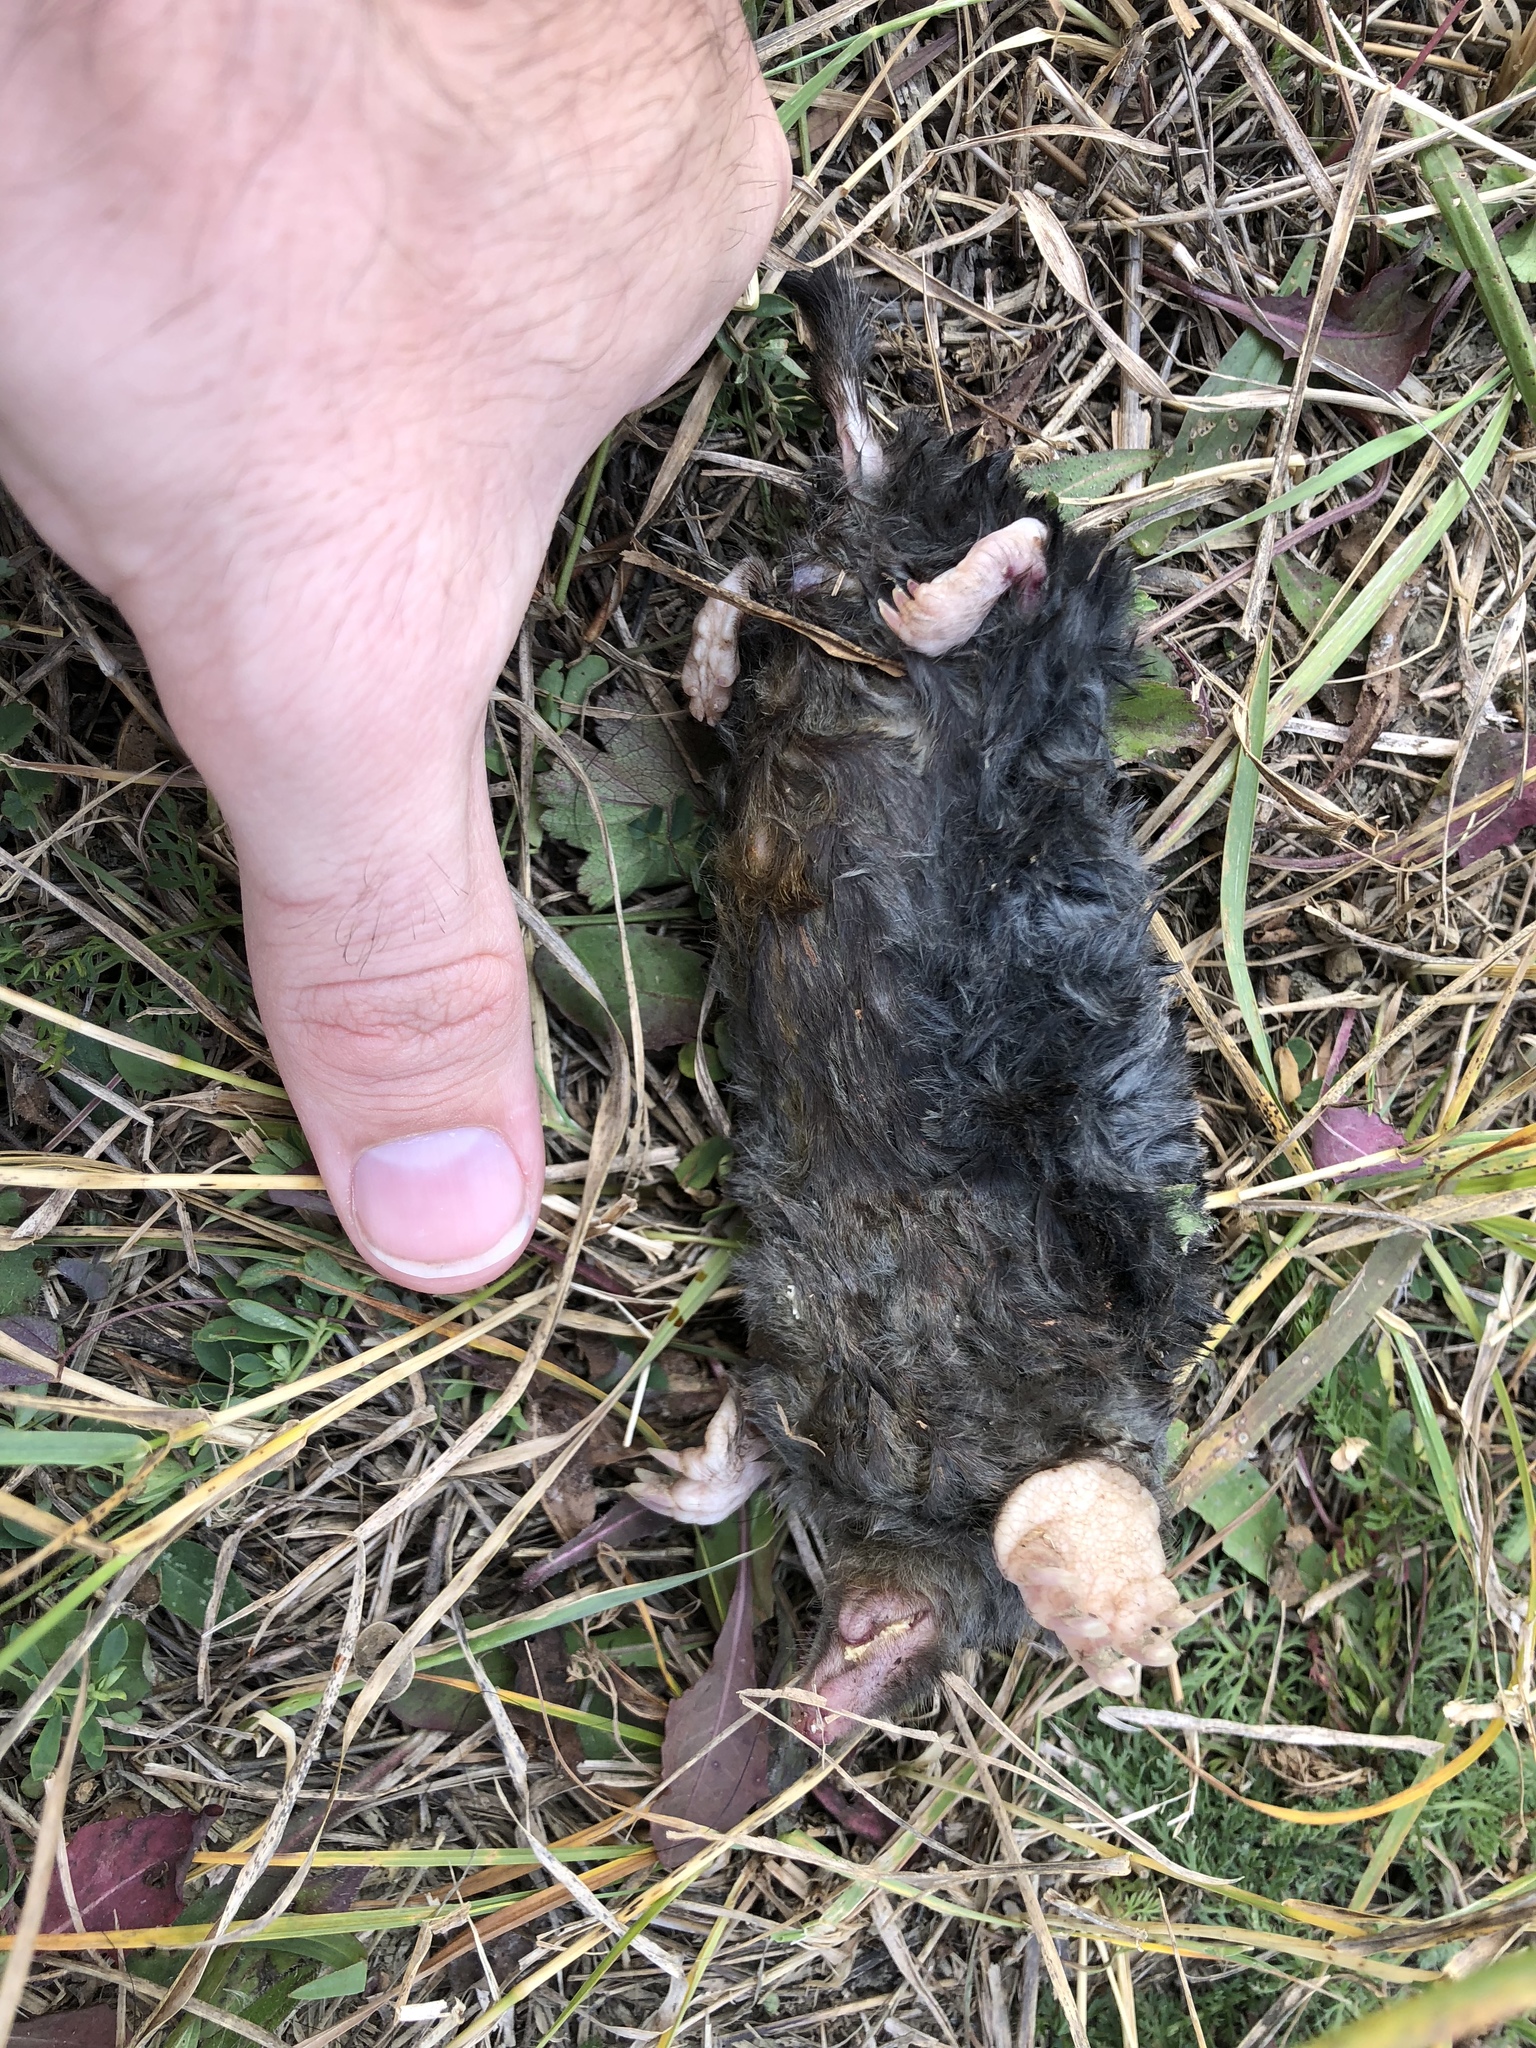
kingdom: Animalia
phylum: Chordata
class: Mammalia
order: Soricomorpha
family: Talpidae
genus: Talpa
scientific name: Talpa europaea
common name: European mole
